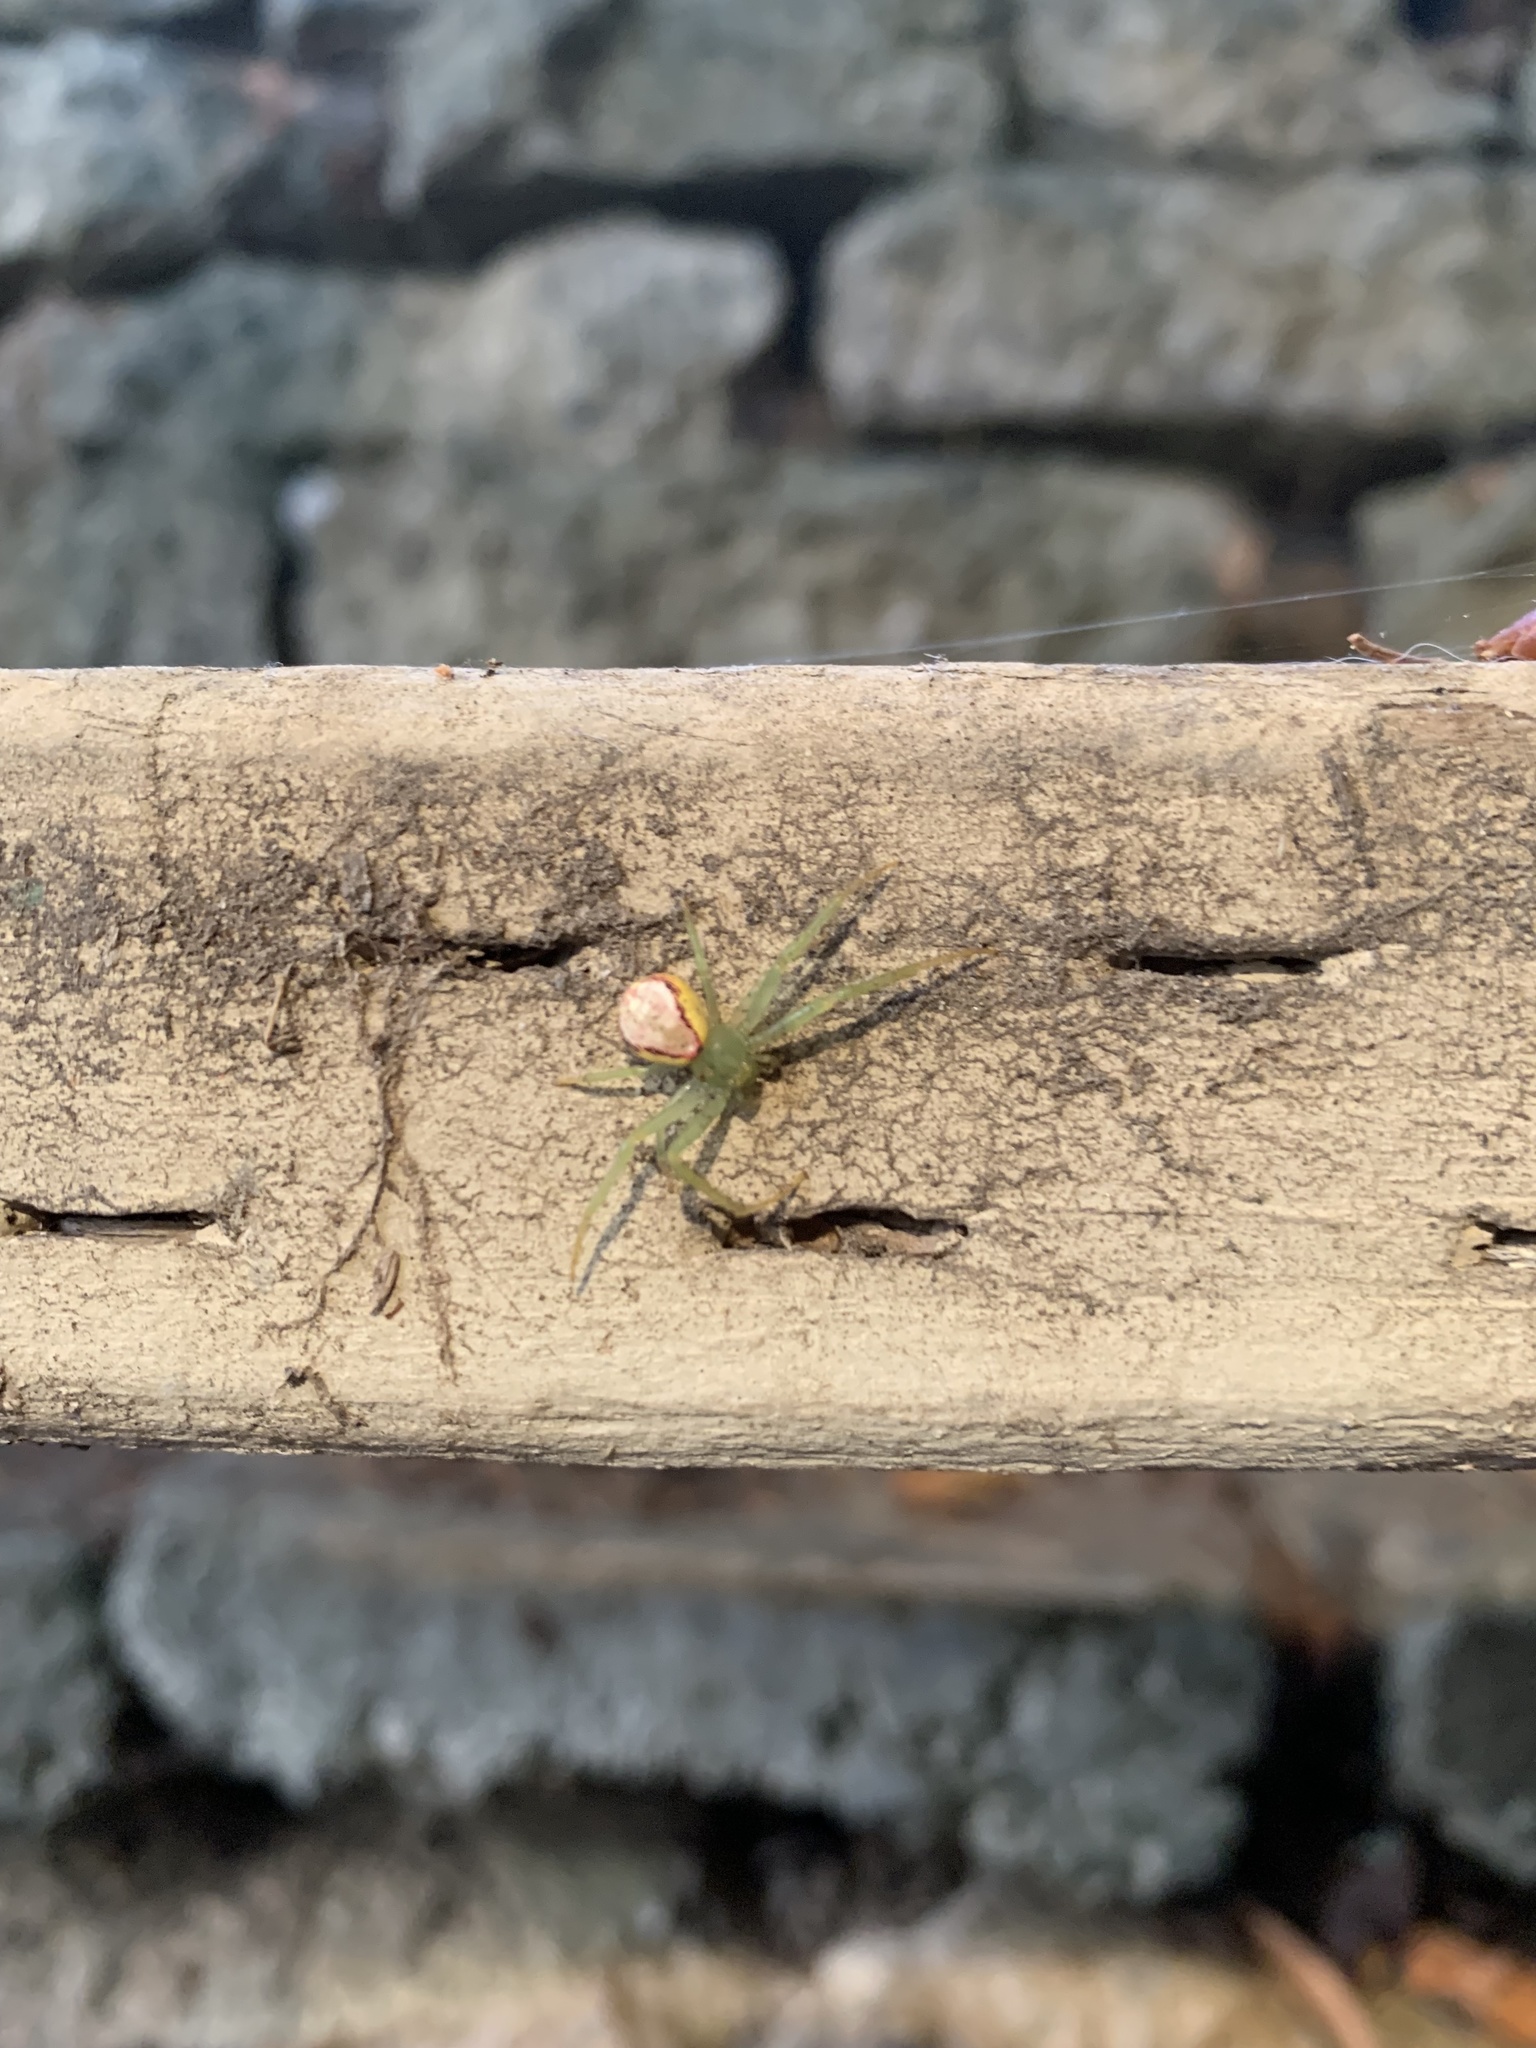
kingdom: Animalia
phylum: Arthropoda
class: Arachnida
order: Araneae
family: Thomisidae
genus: Diaea
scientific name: Diaea livens
